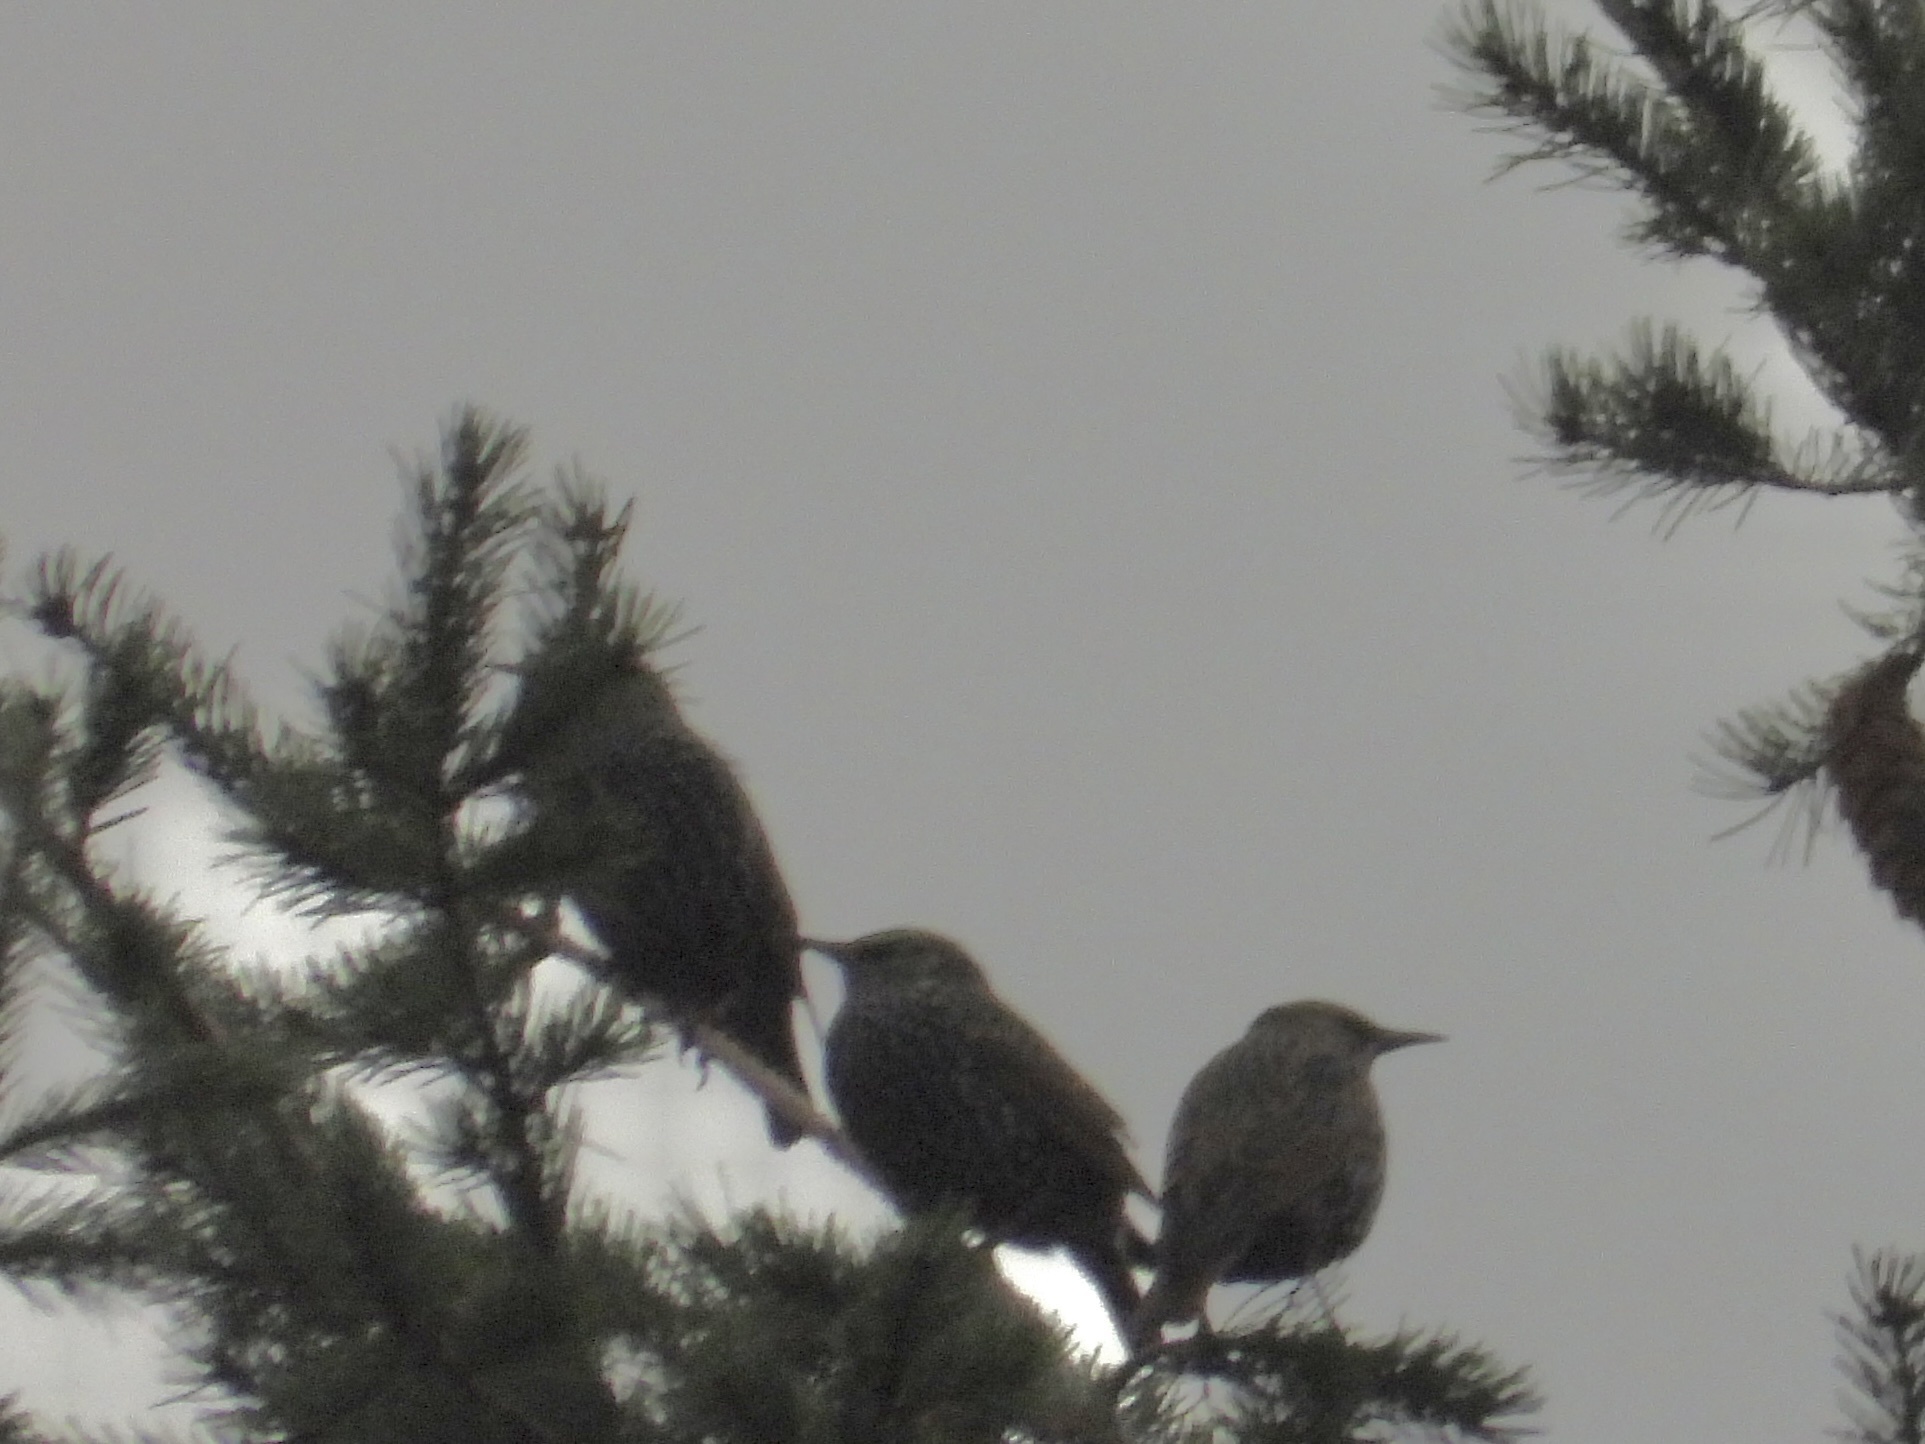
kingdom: Animalia
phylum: Chordata
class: Aves
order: Passeriformes
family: Sturnidae
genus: Sturnus
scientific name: Sturnus vulgaris
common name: Common starling
